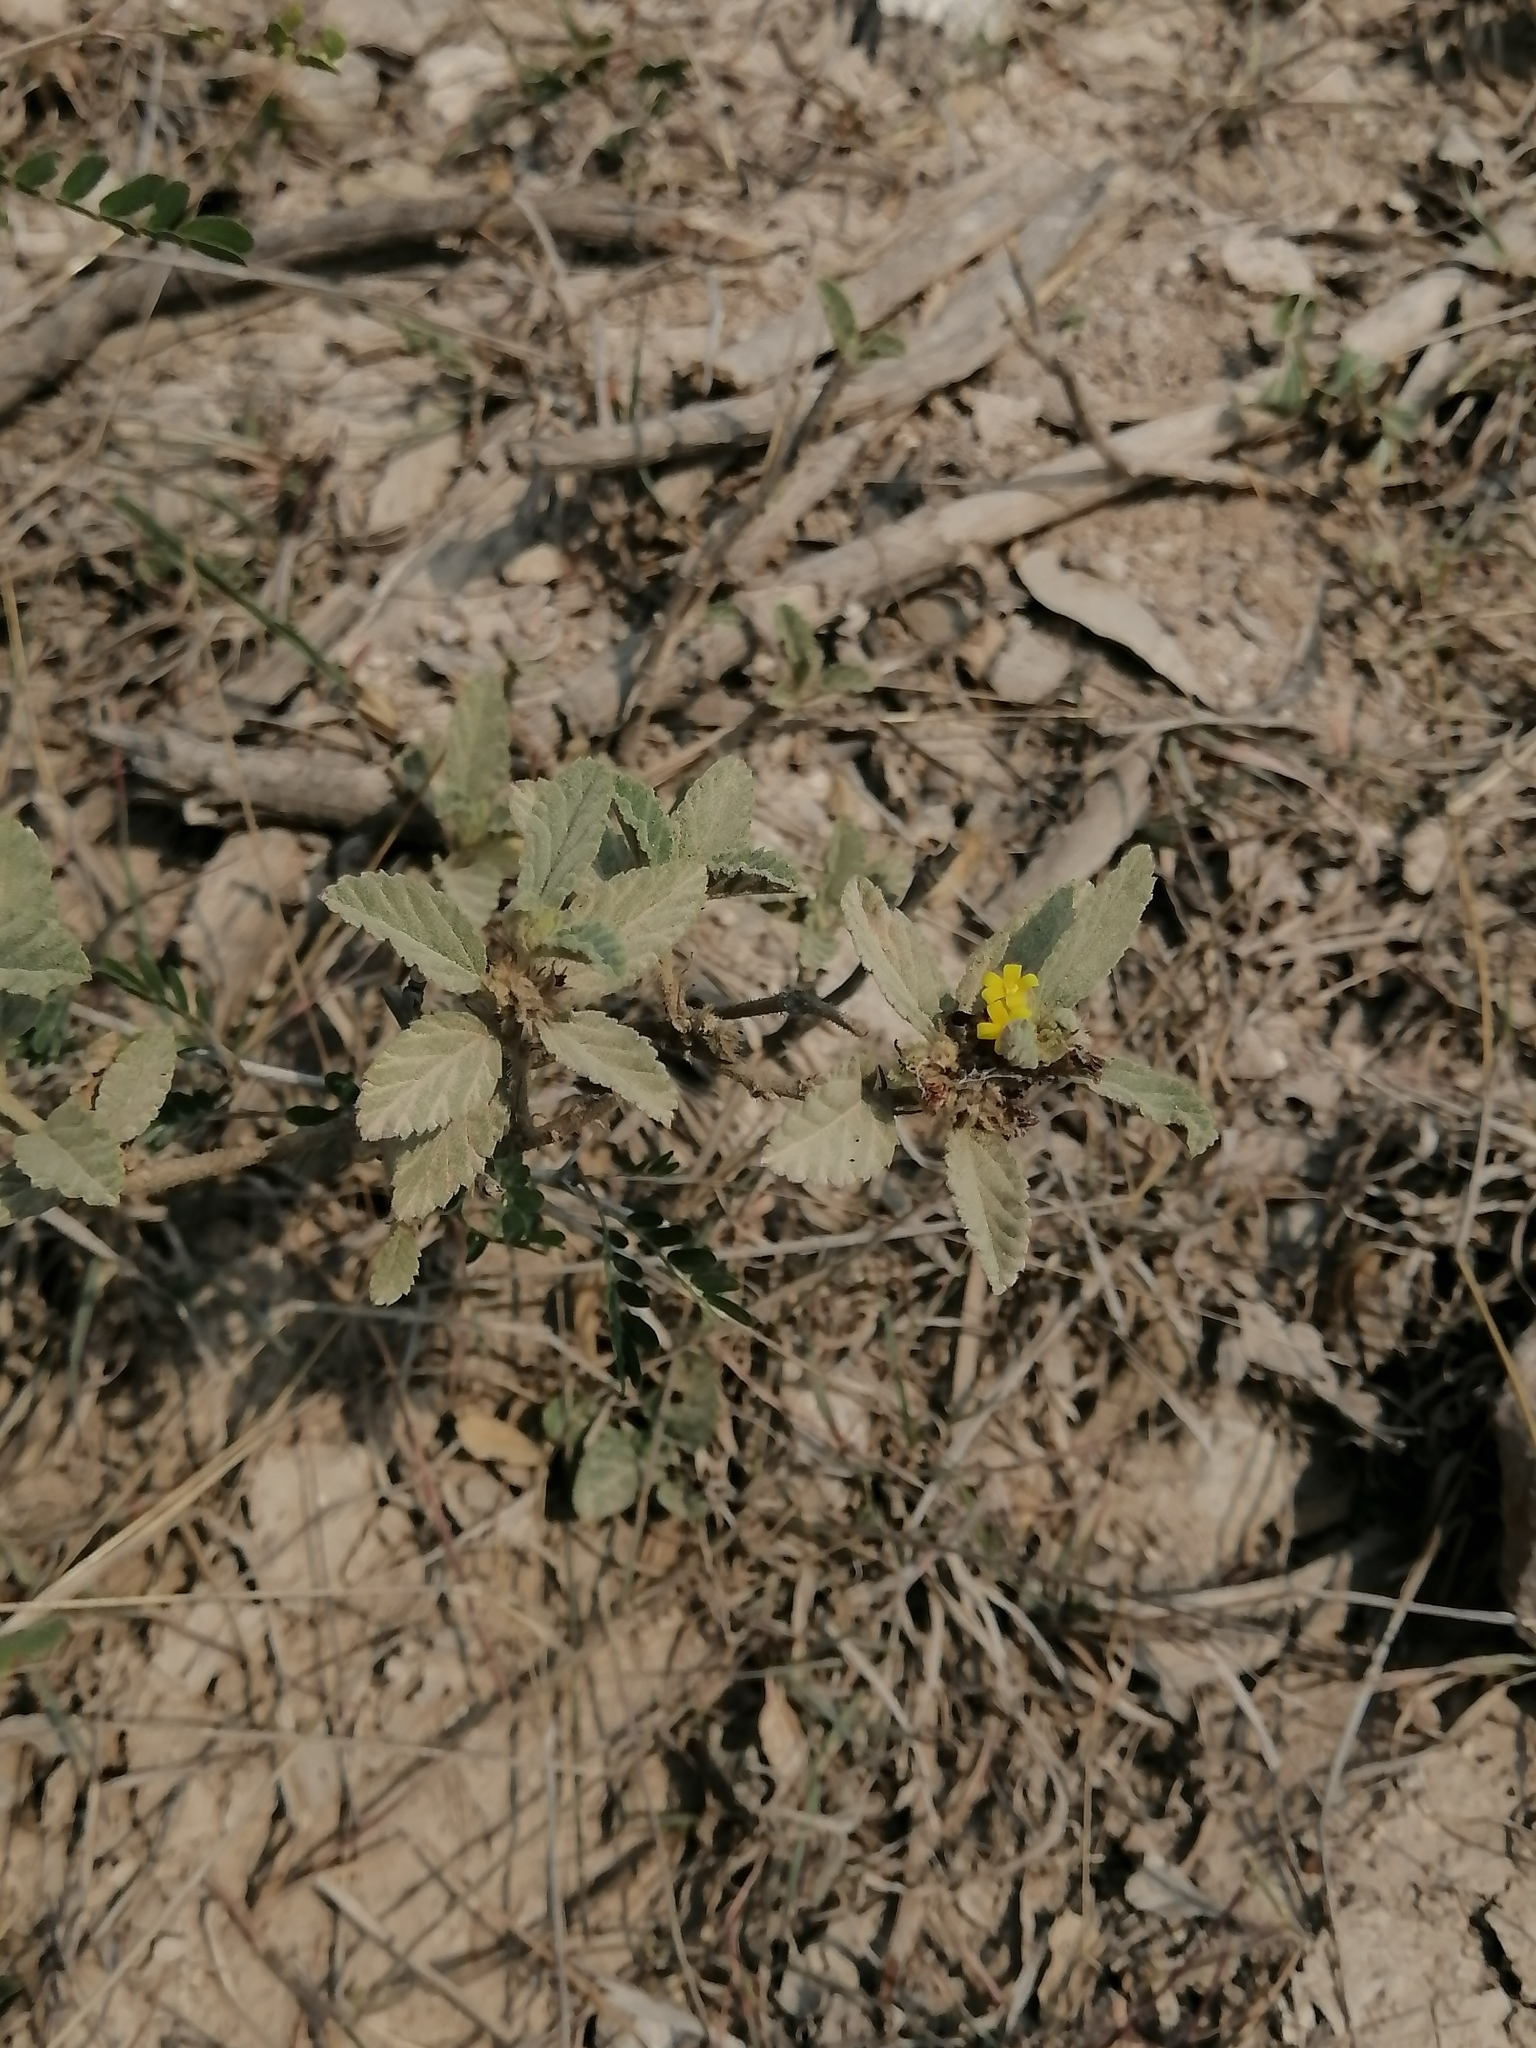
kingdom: Plantae
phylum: Tracheophyta
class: Magnoliopsida
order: Malvales
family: Malvaceae
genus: Waltheria
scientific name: Waltheria indica
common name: Leather-coat
